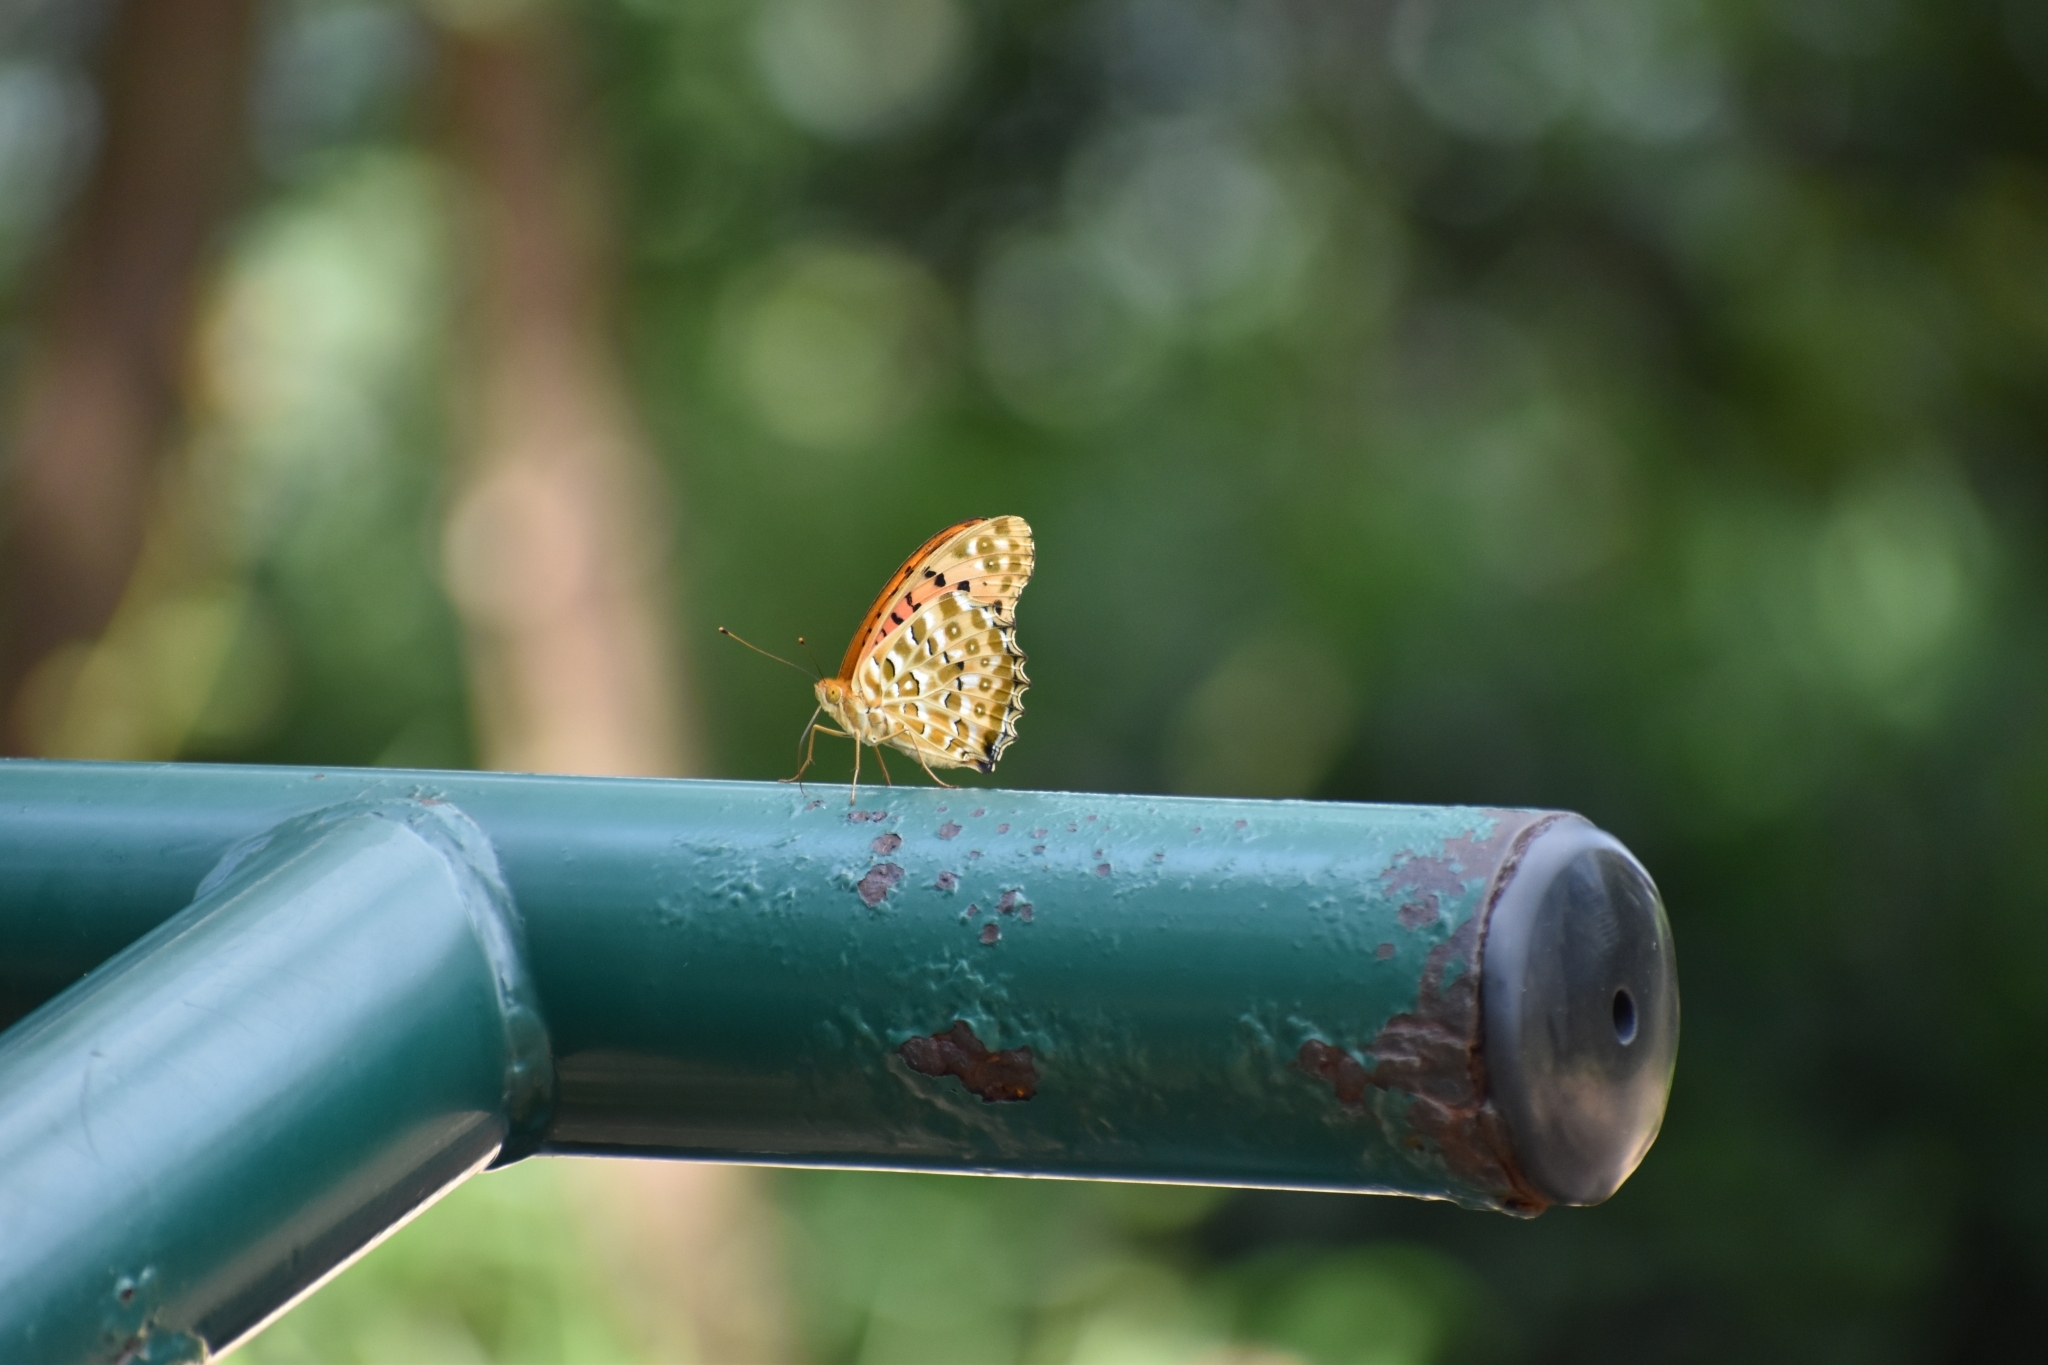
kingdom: Animalia
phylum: Arthropoda
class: Insecta
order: Lepidoptera
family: Nymphalidae
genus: Argynnis
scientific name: Argynnis hyperbius
